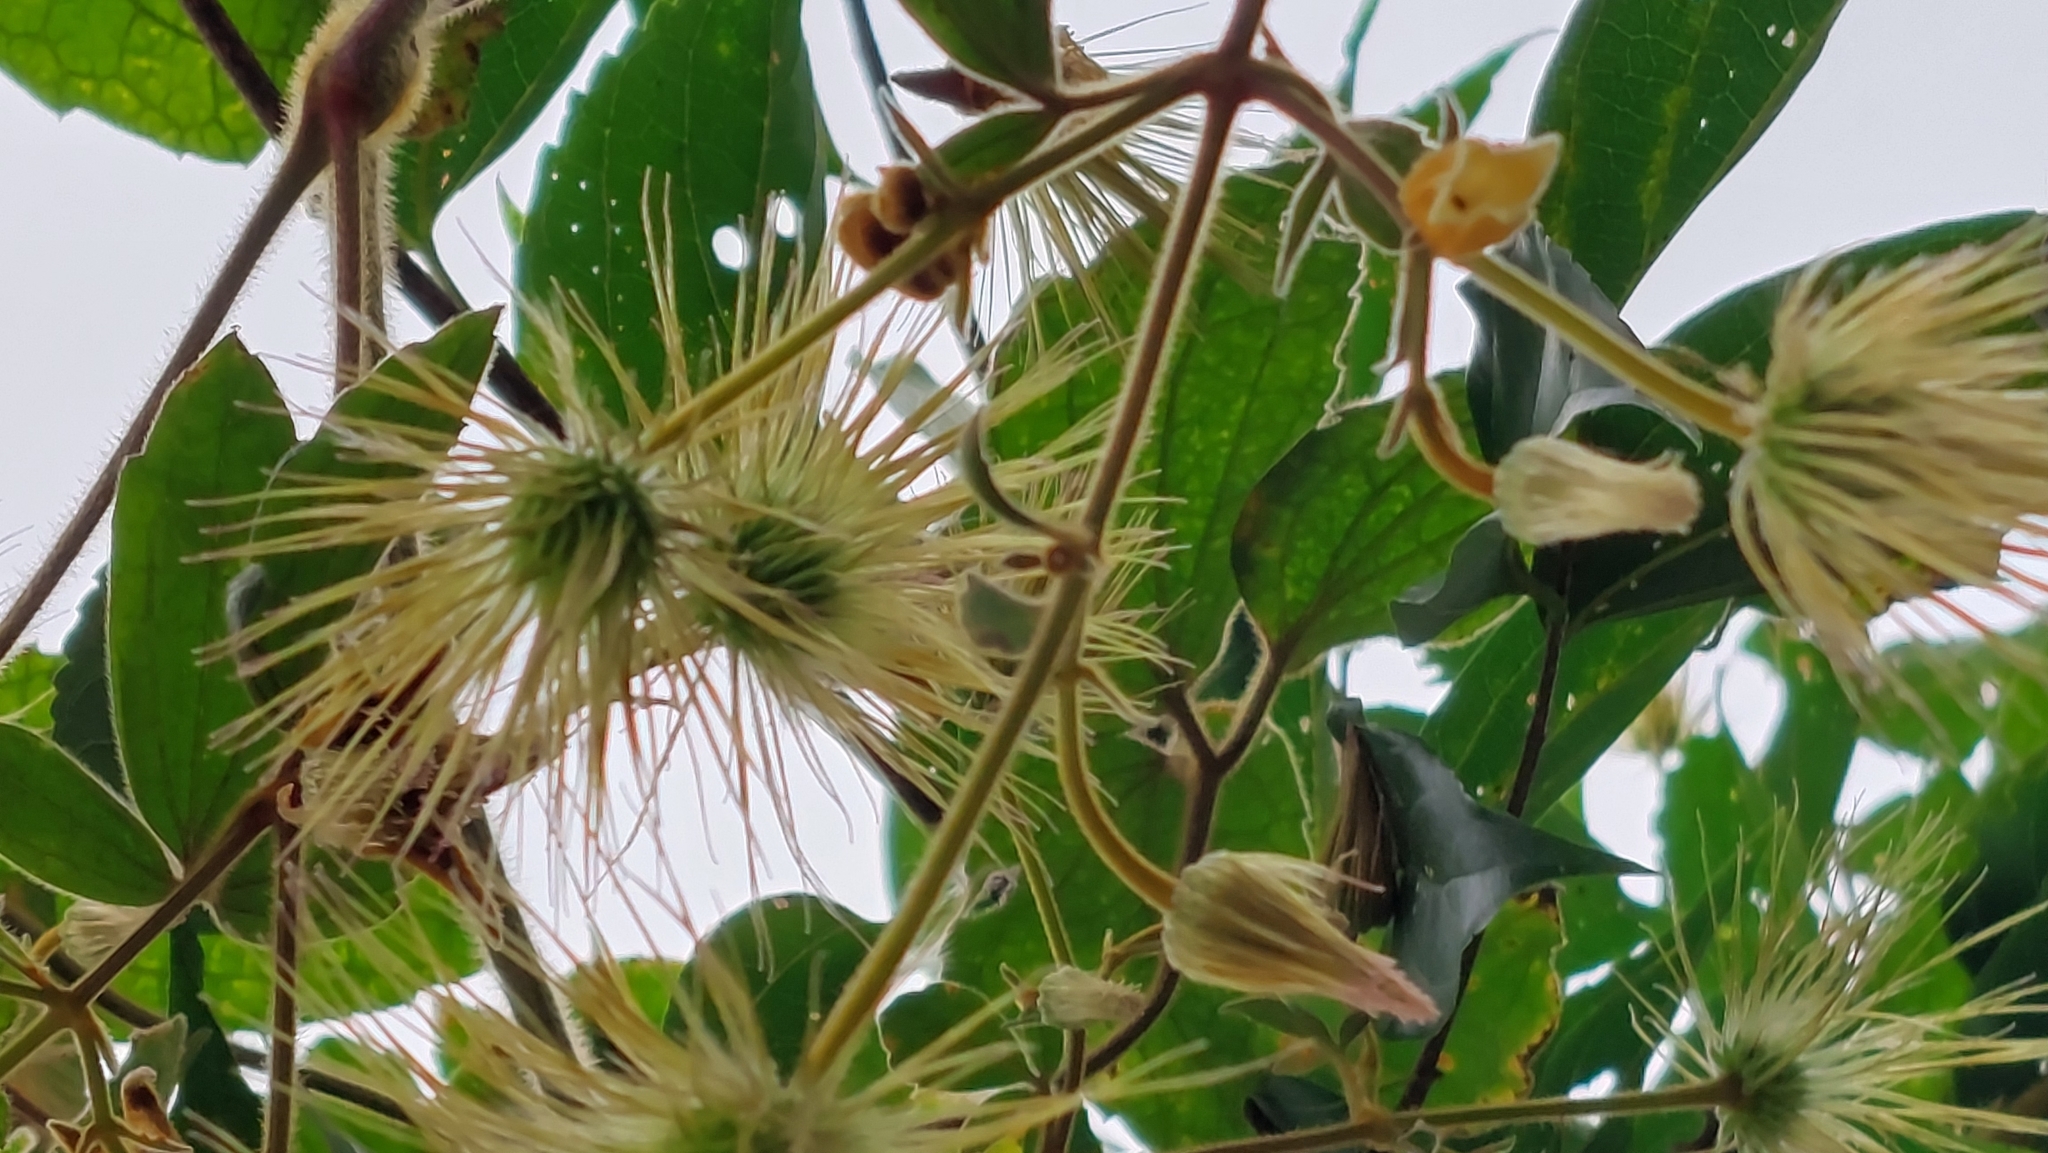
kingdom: Plantae
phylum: Tracheophyta
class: Magnoliopsida
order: Ranunculales
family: Ranunculaceae
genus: Clematis
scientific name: Clematis leschenaultiana
